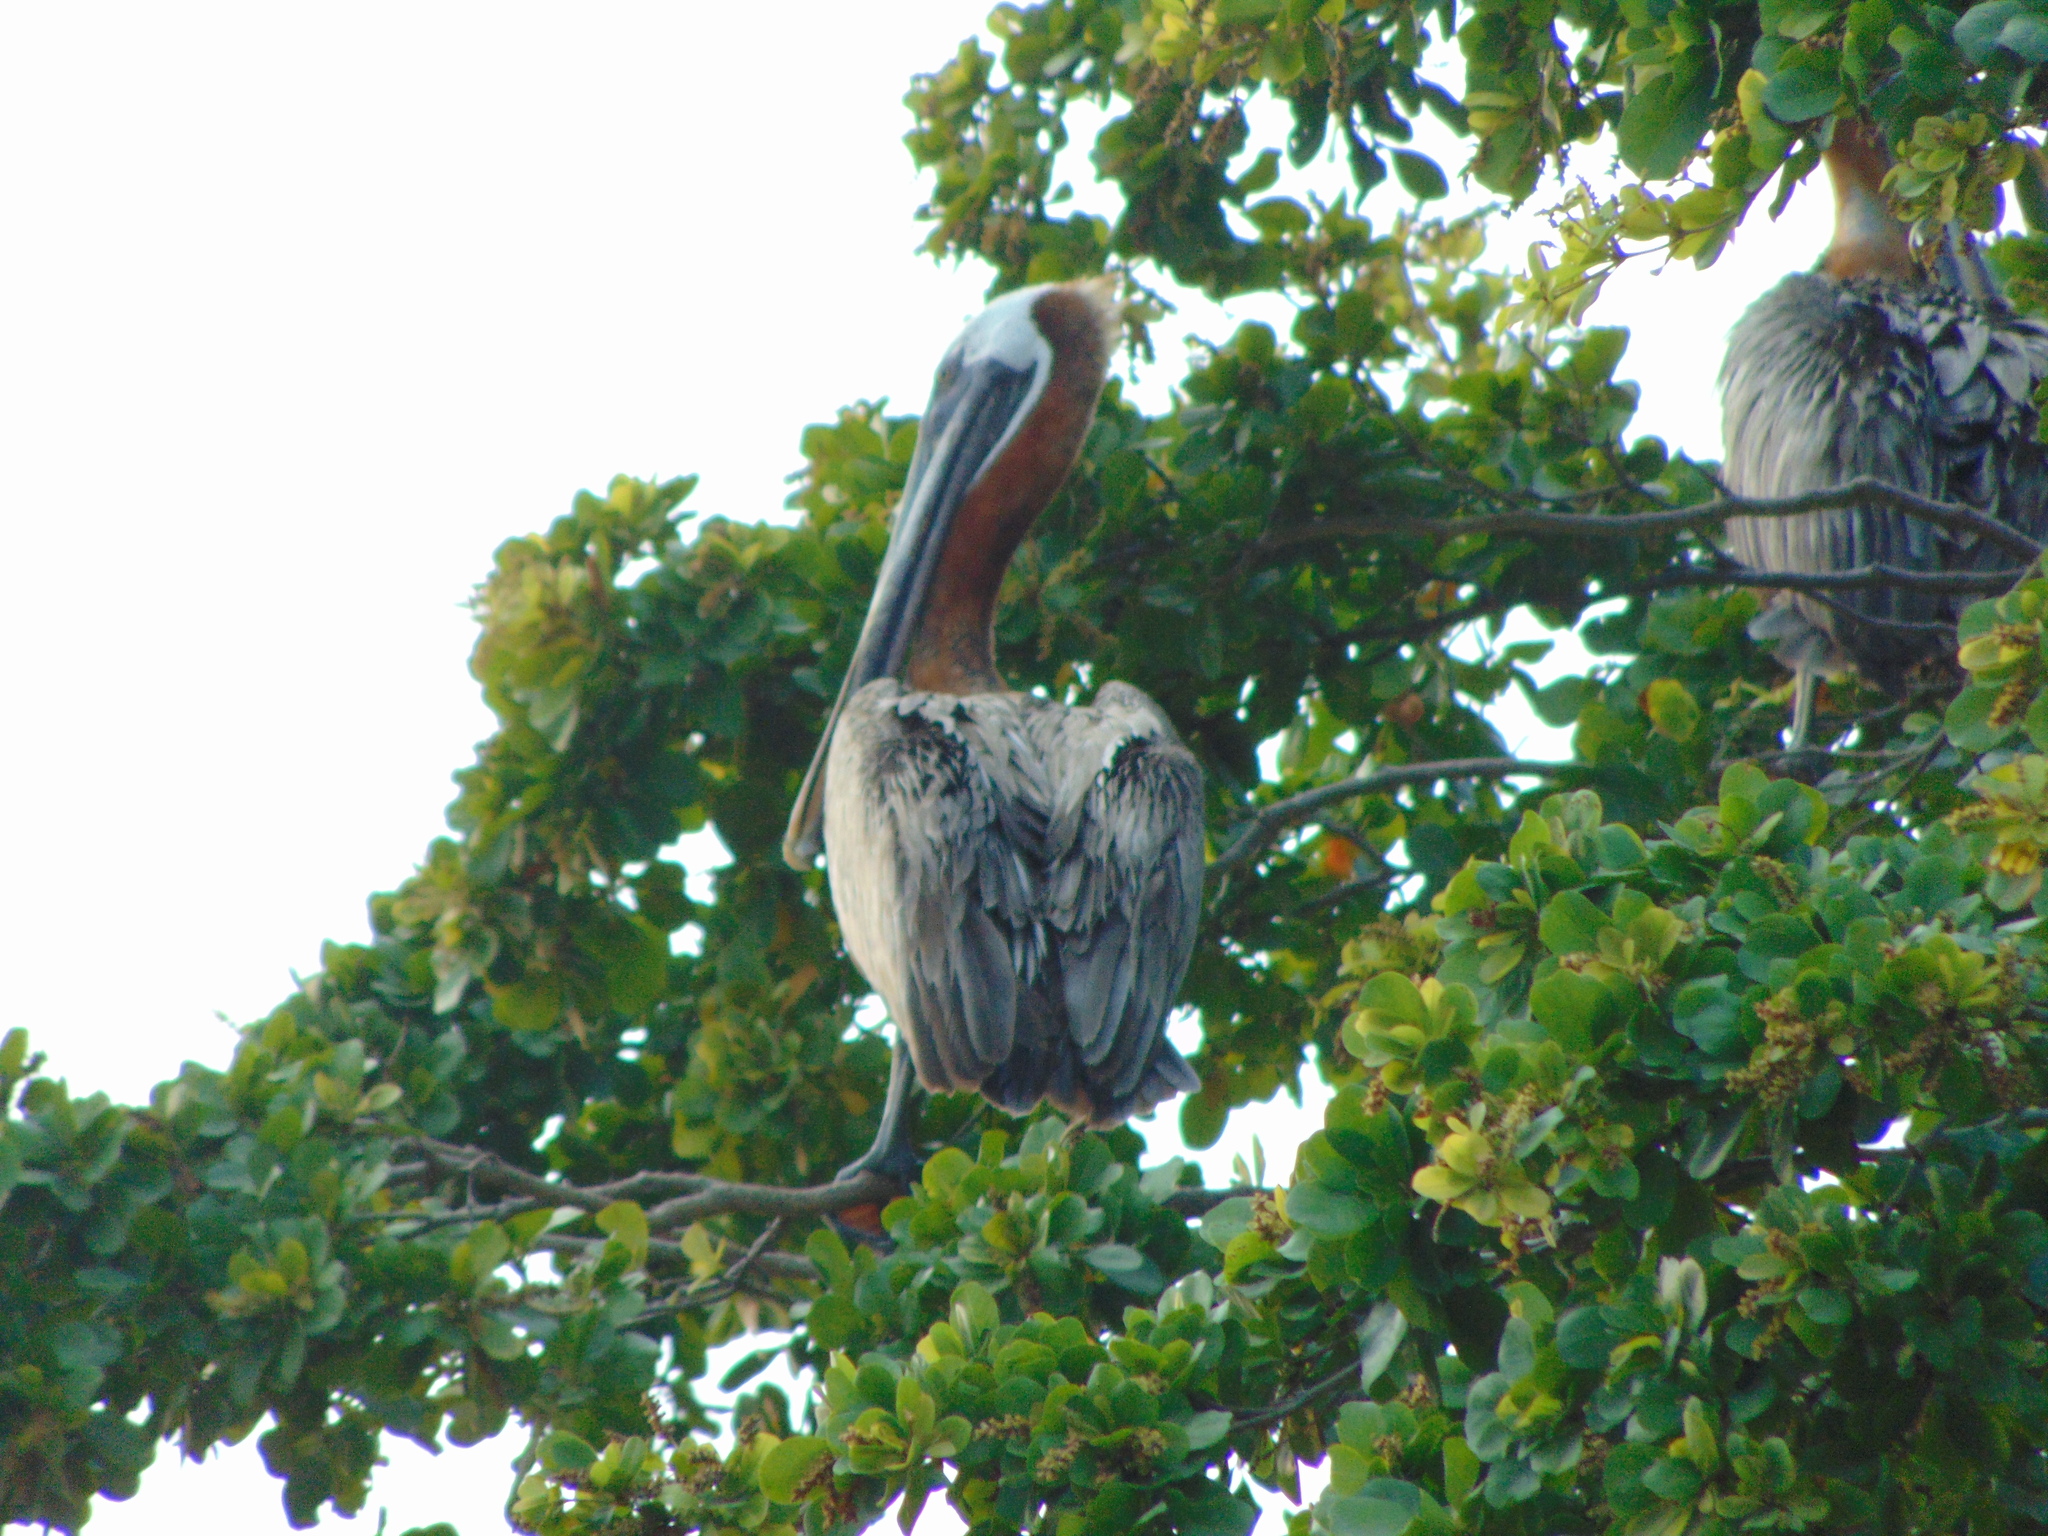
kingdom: Animalia
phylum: Chordata
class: Aves
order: Pelecaniformes
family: Pelecanidae
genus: Pelecanus
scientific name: Pelecanus occidentalis
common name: Brown pelican
